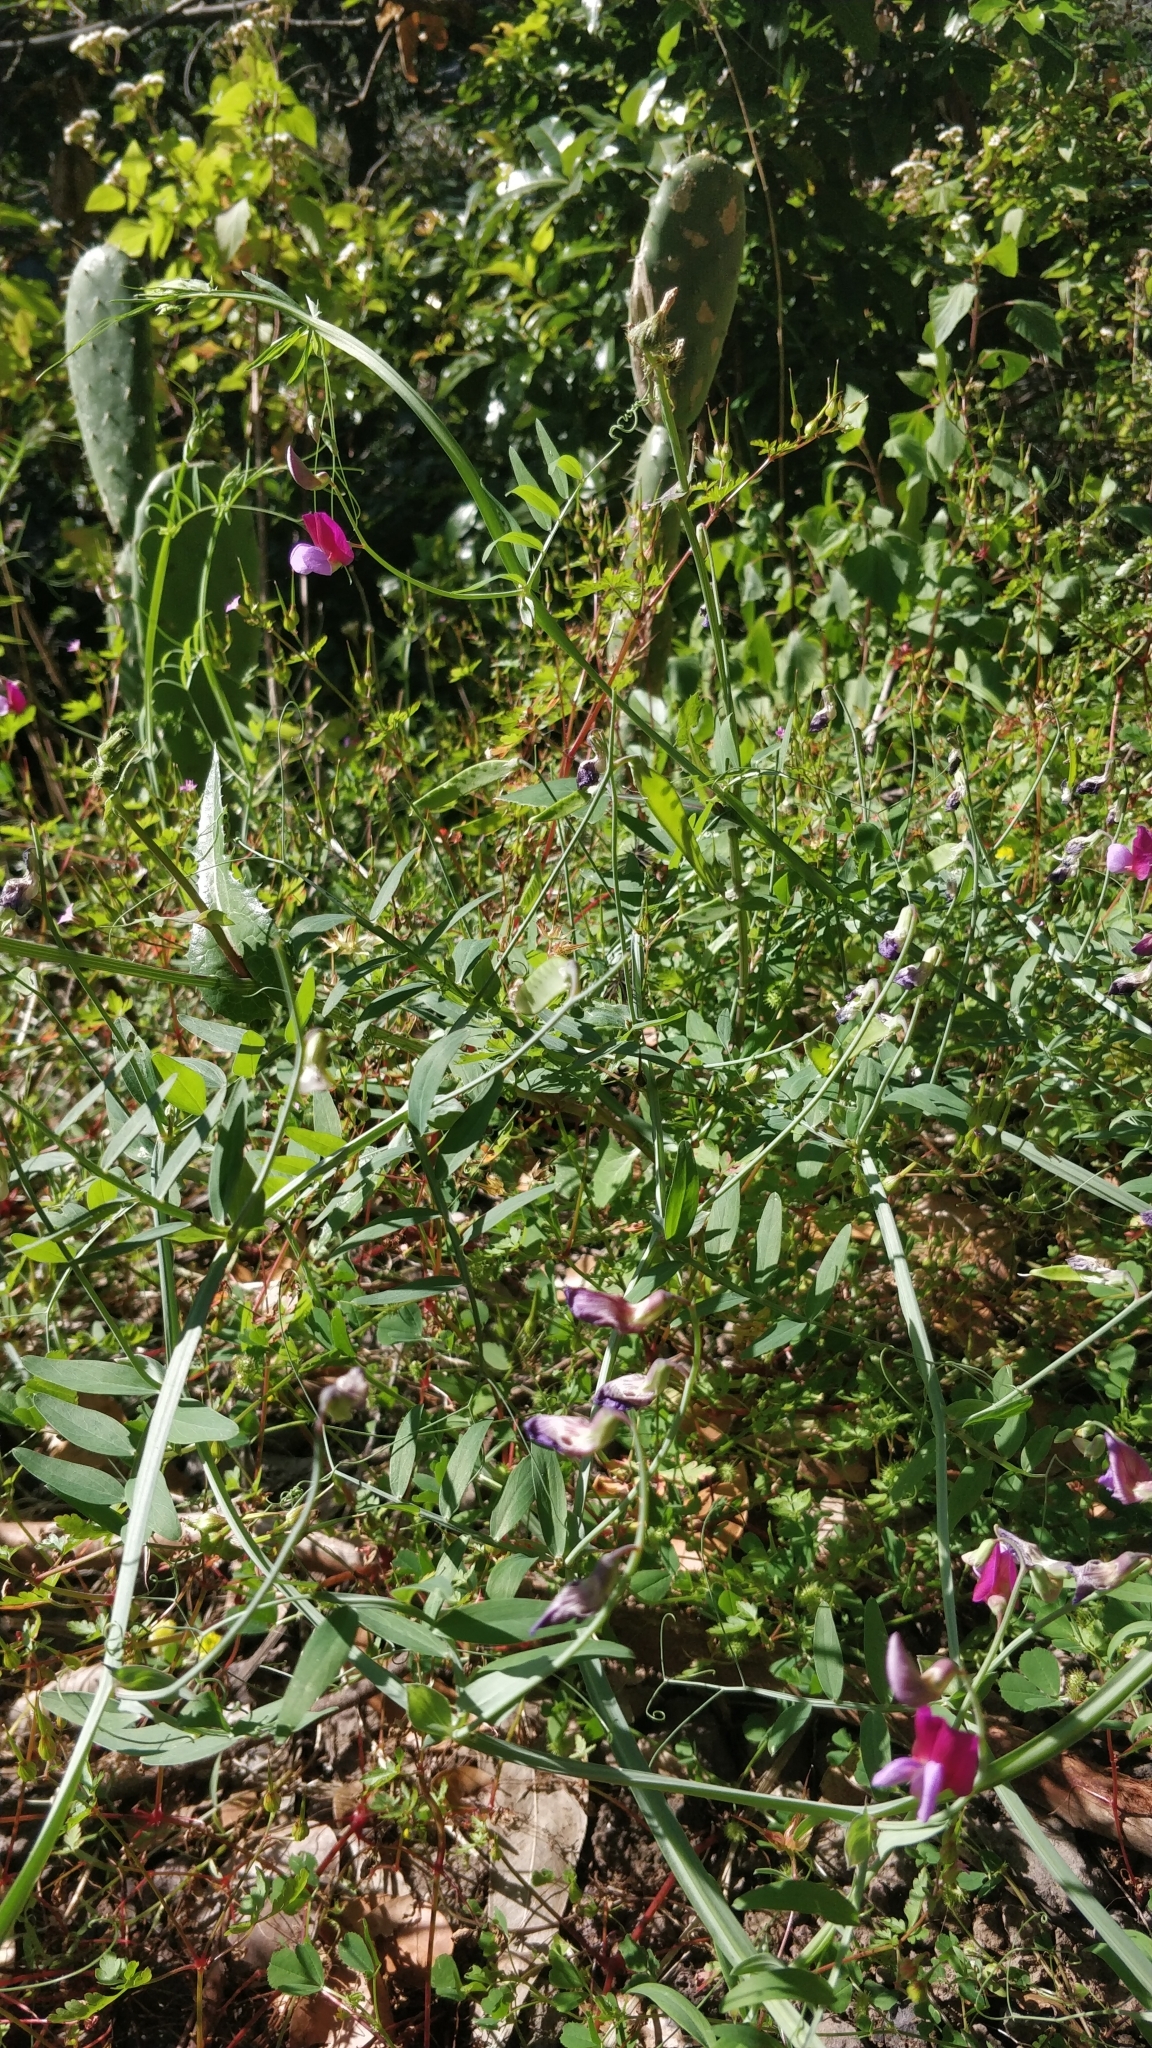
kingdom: Plantae
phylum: Tracheophyta
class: Magnoliopsida
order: Fabales
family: Fabaceae
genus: Lathyrus
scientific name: Lathyrus clymenum
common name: Spanish vetchling
